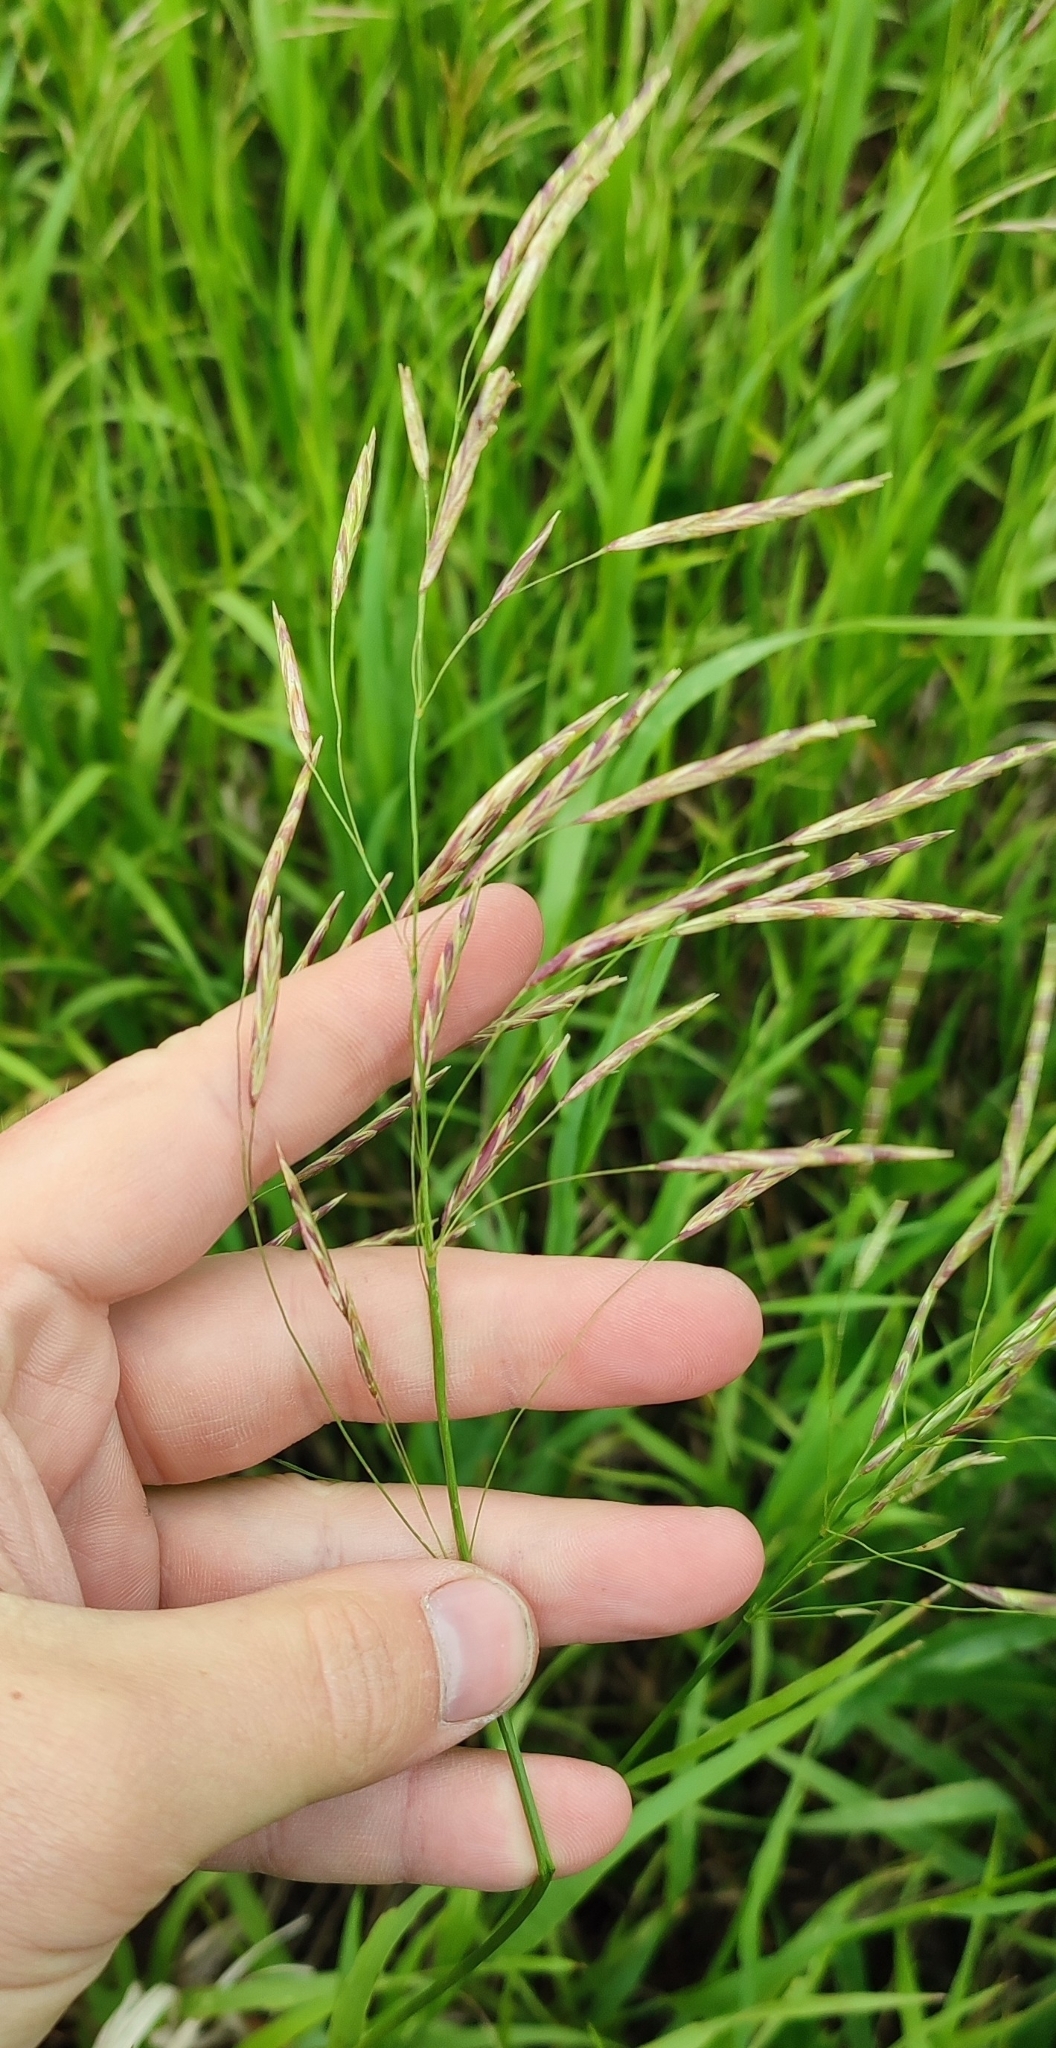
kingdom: Plantae
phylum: Tracheophyta
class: Liliopsida
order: Poales
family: Poaceae
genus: Bromus
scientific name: Bromus inermis
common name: Smooth brome
